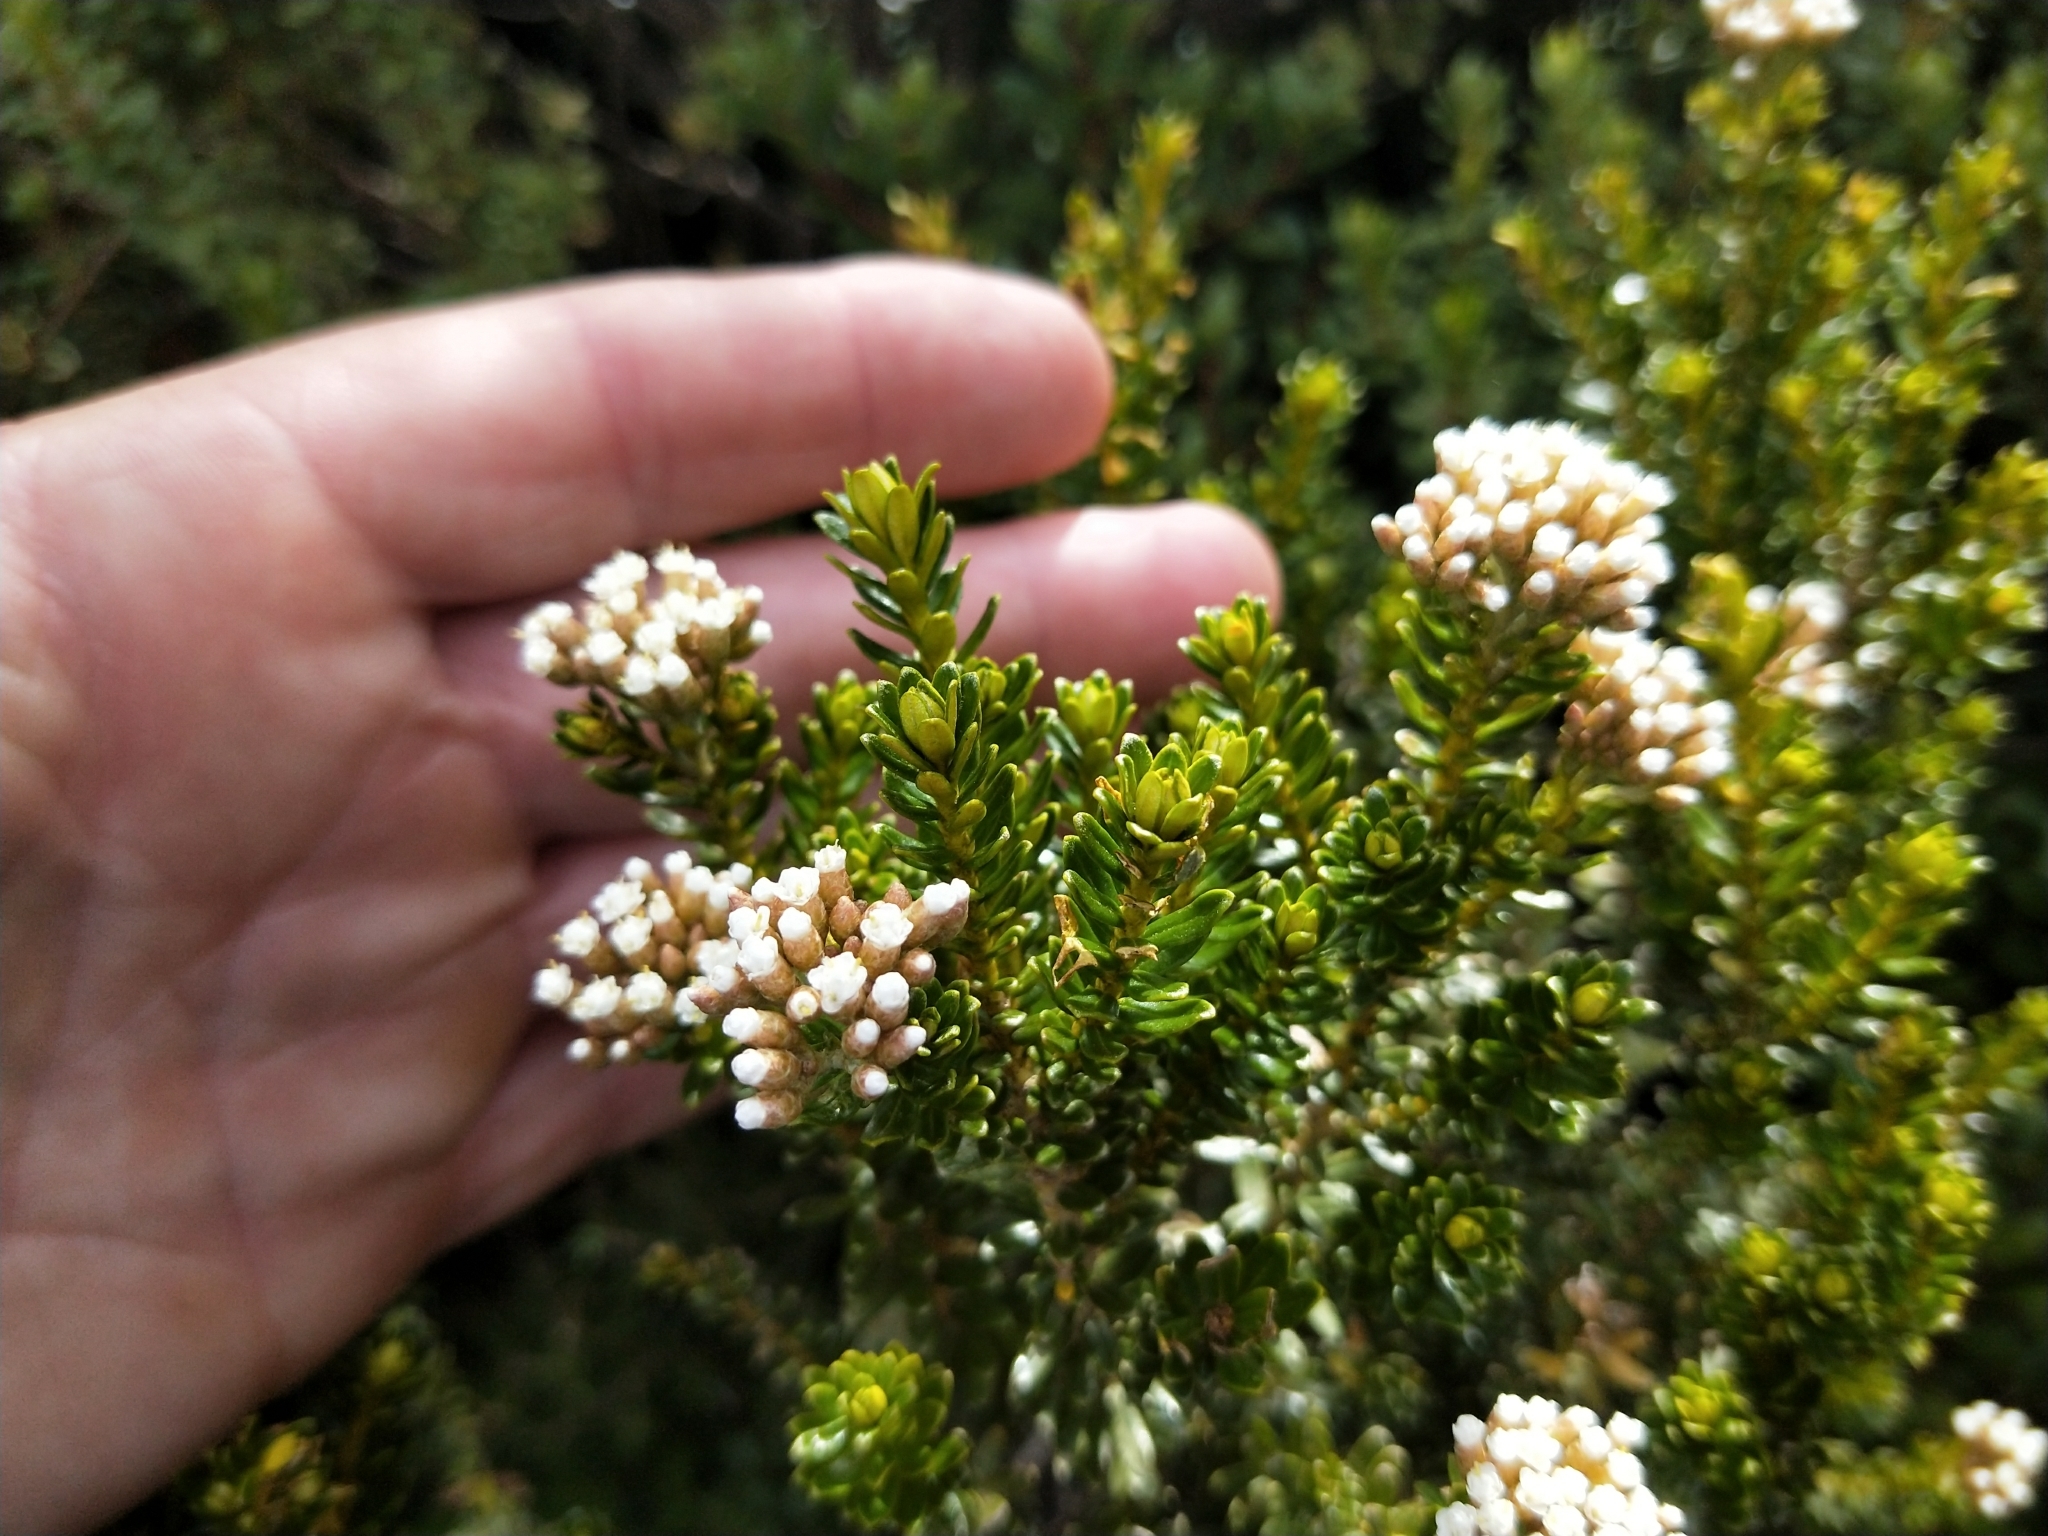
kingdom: Plantae
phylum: Tracheophyta
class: Magnoliopsida
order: Asterales
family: Asteraceae
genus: Ozothamnus
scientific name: Ozothamnus leptophyllus
